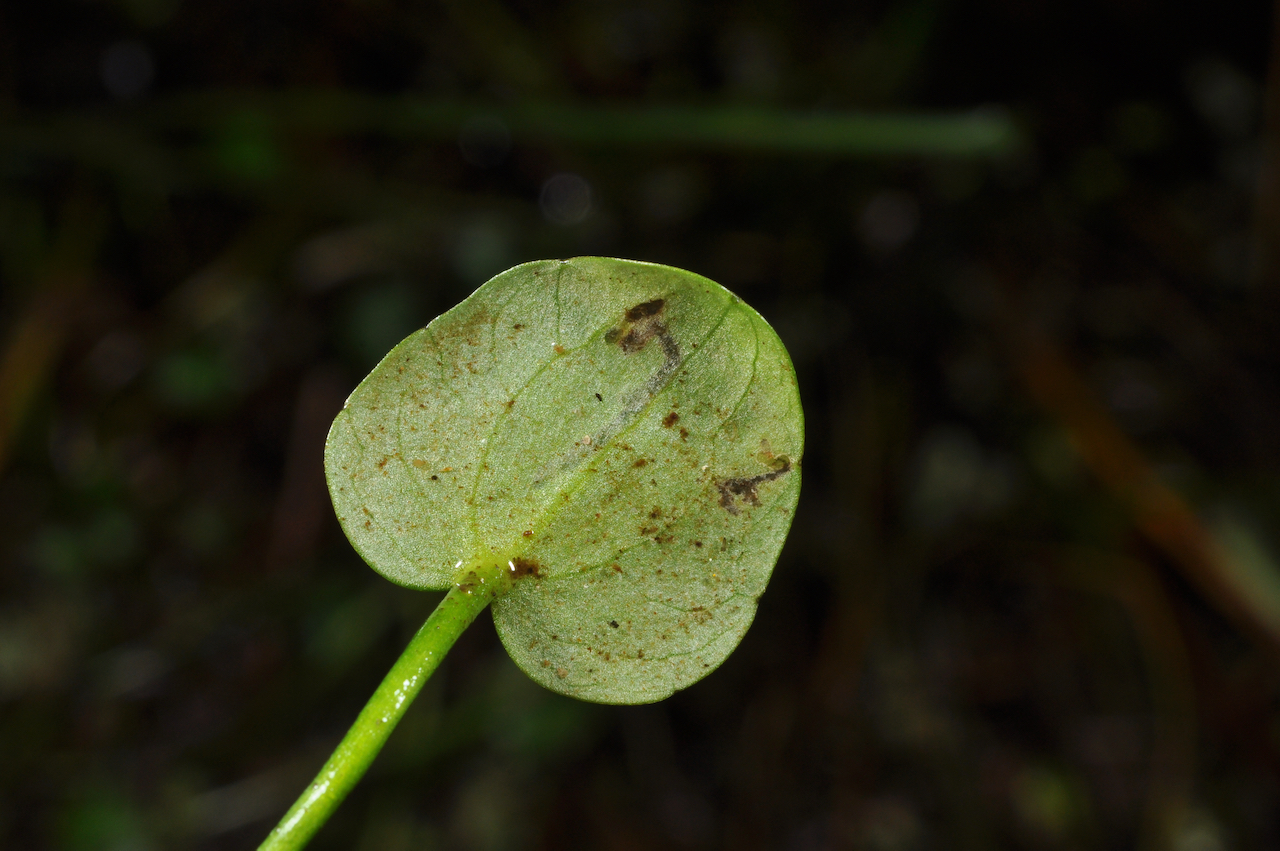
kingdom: Plantae
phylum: Tracheophyta
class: Magnoliopsida
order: Ranunculales
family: Ranunculaceae
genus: Ranunculus
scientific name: Ranunculus flammula
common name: Lesser spearwort
